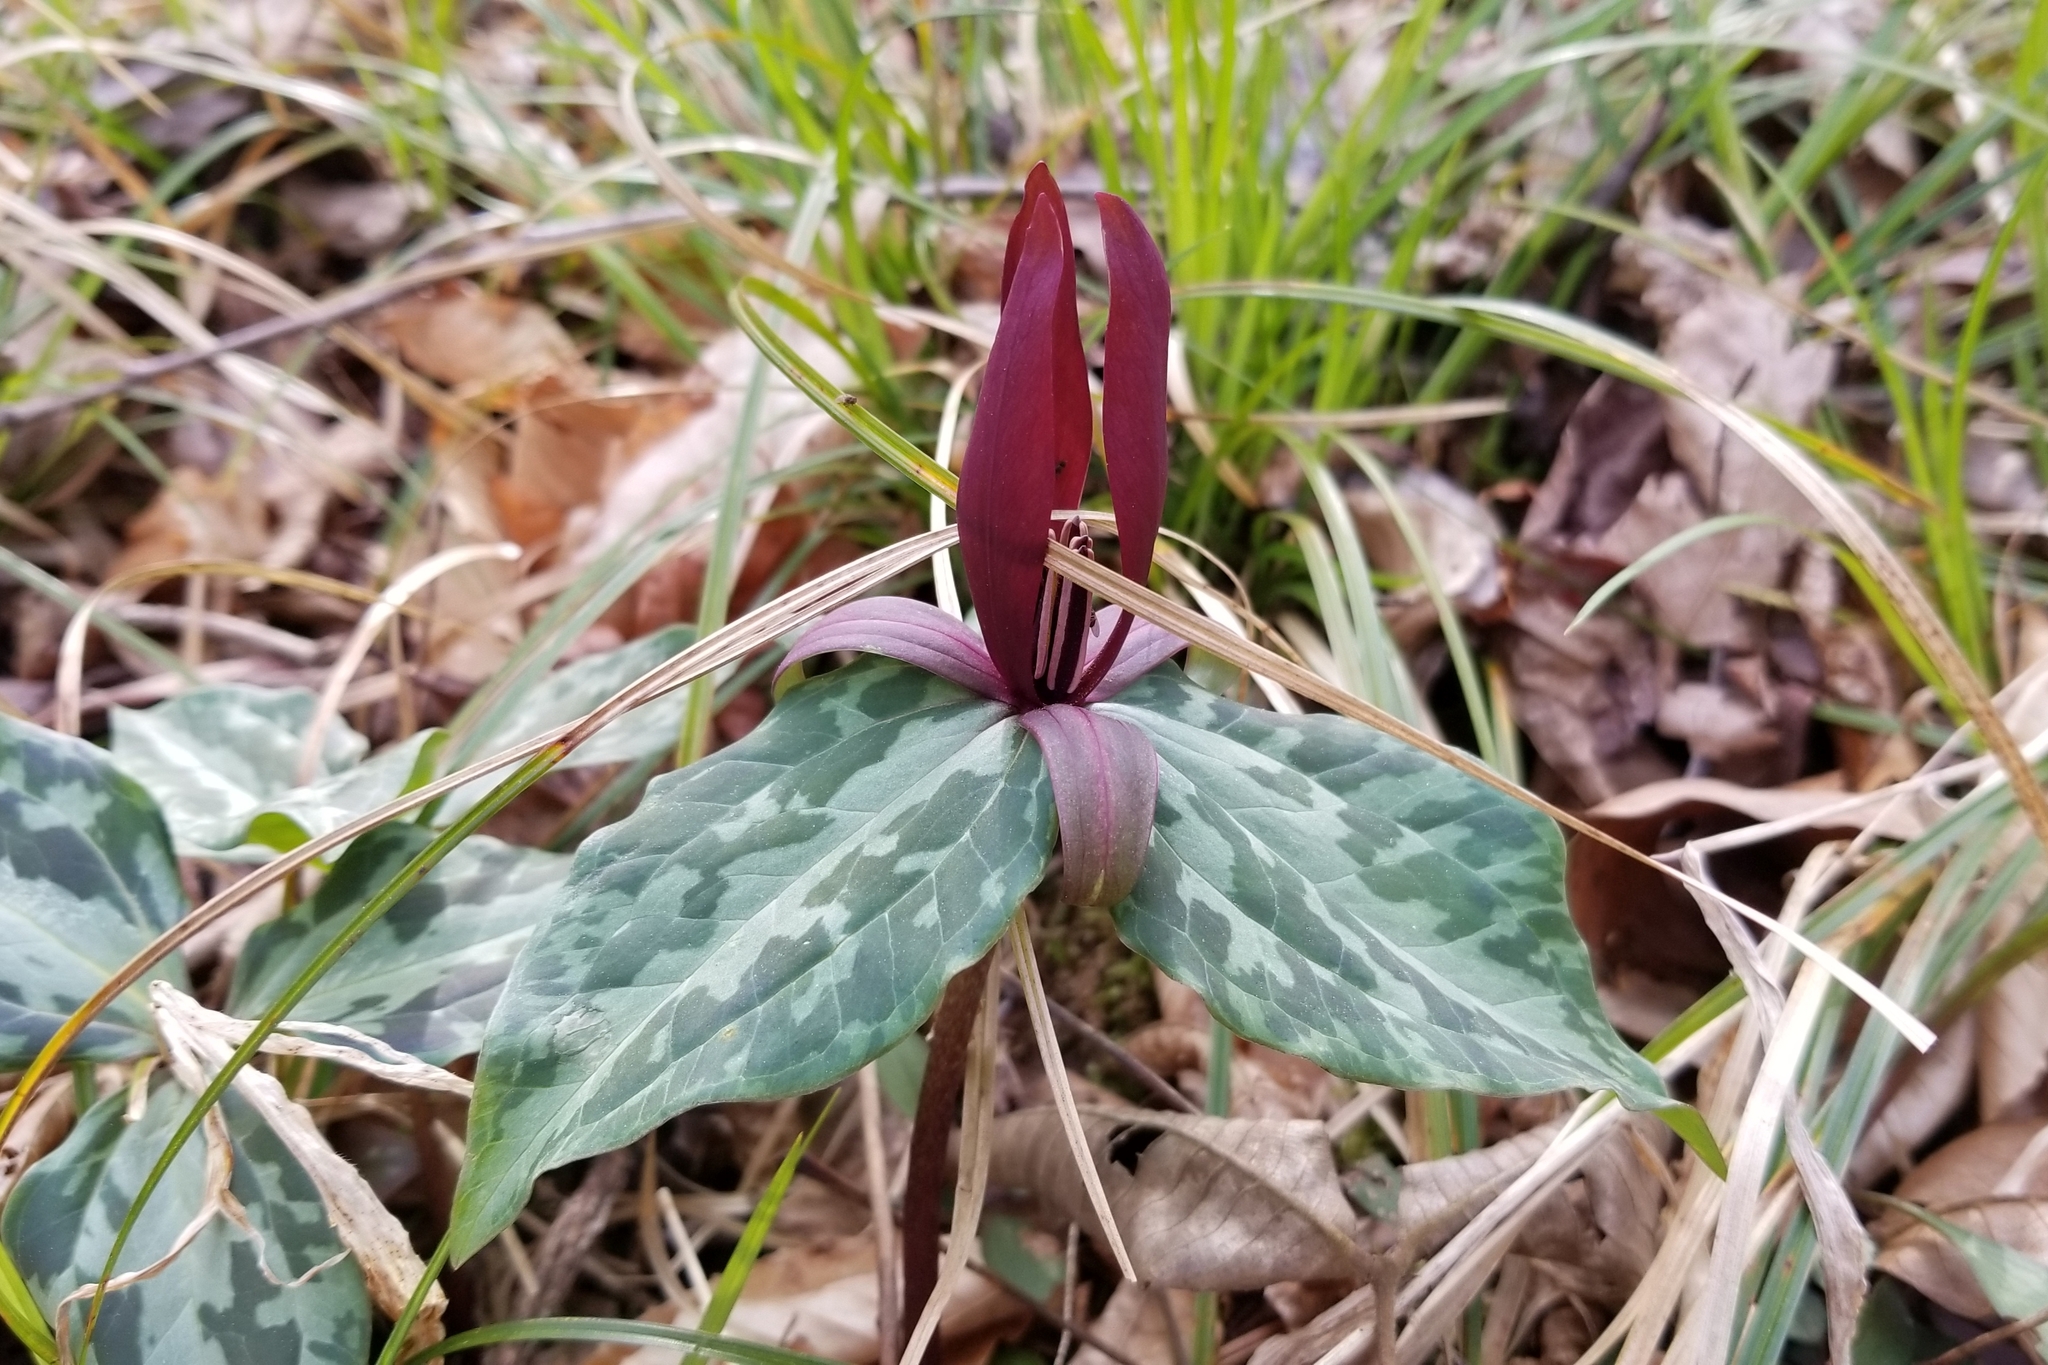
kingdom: Plantae
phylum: Tracheophyta
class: Liliopsida
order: Liliales
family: Melanthiaceae
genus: Trillium
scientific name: Trillium cuneatum
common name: Cuneate trillium
